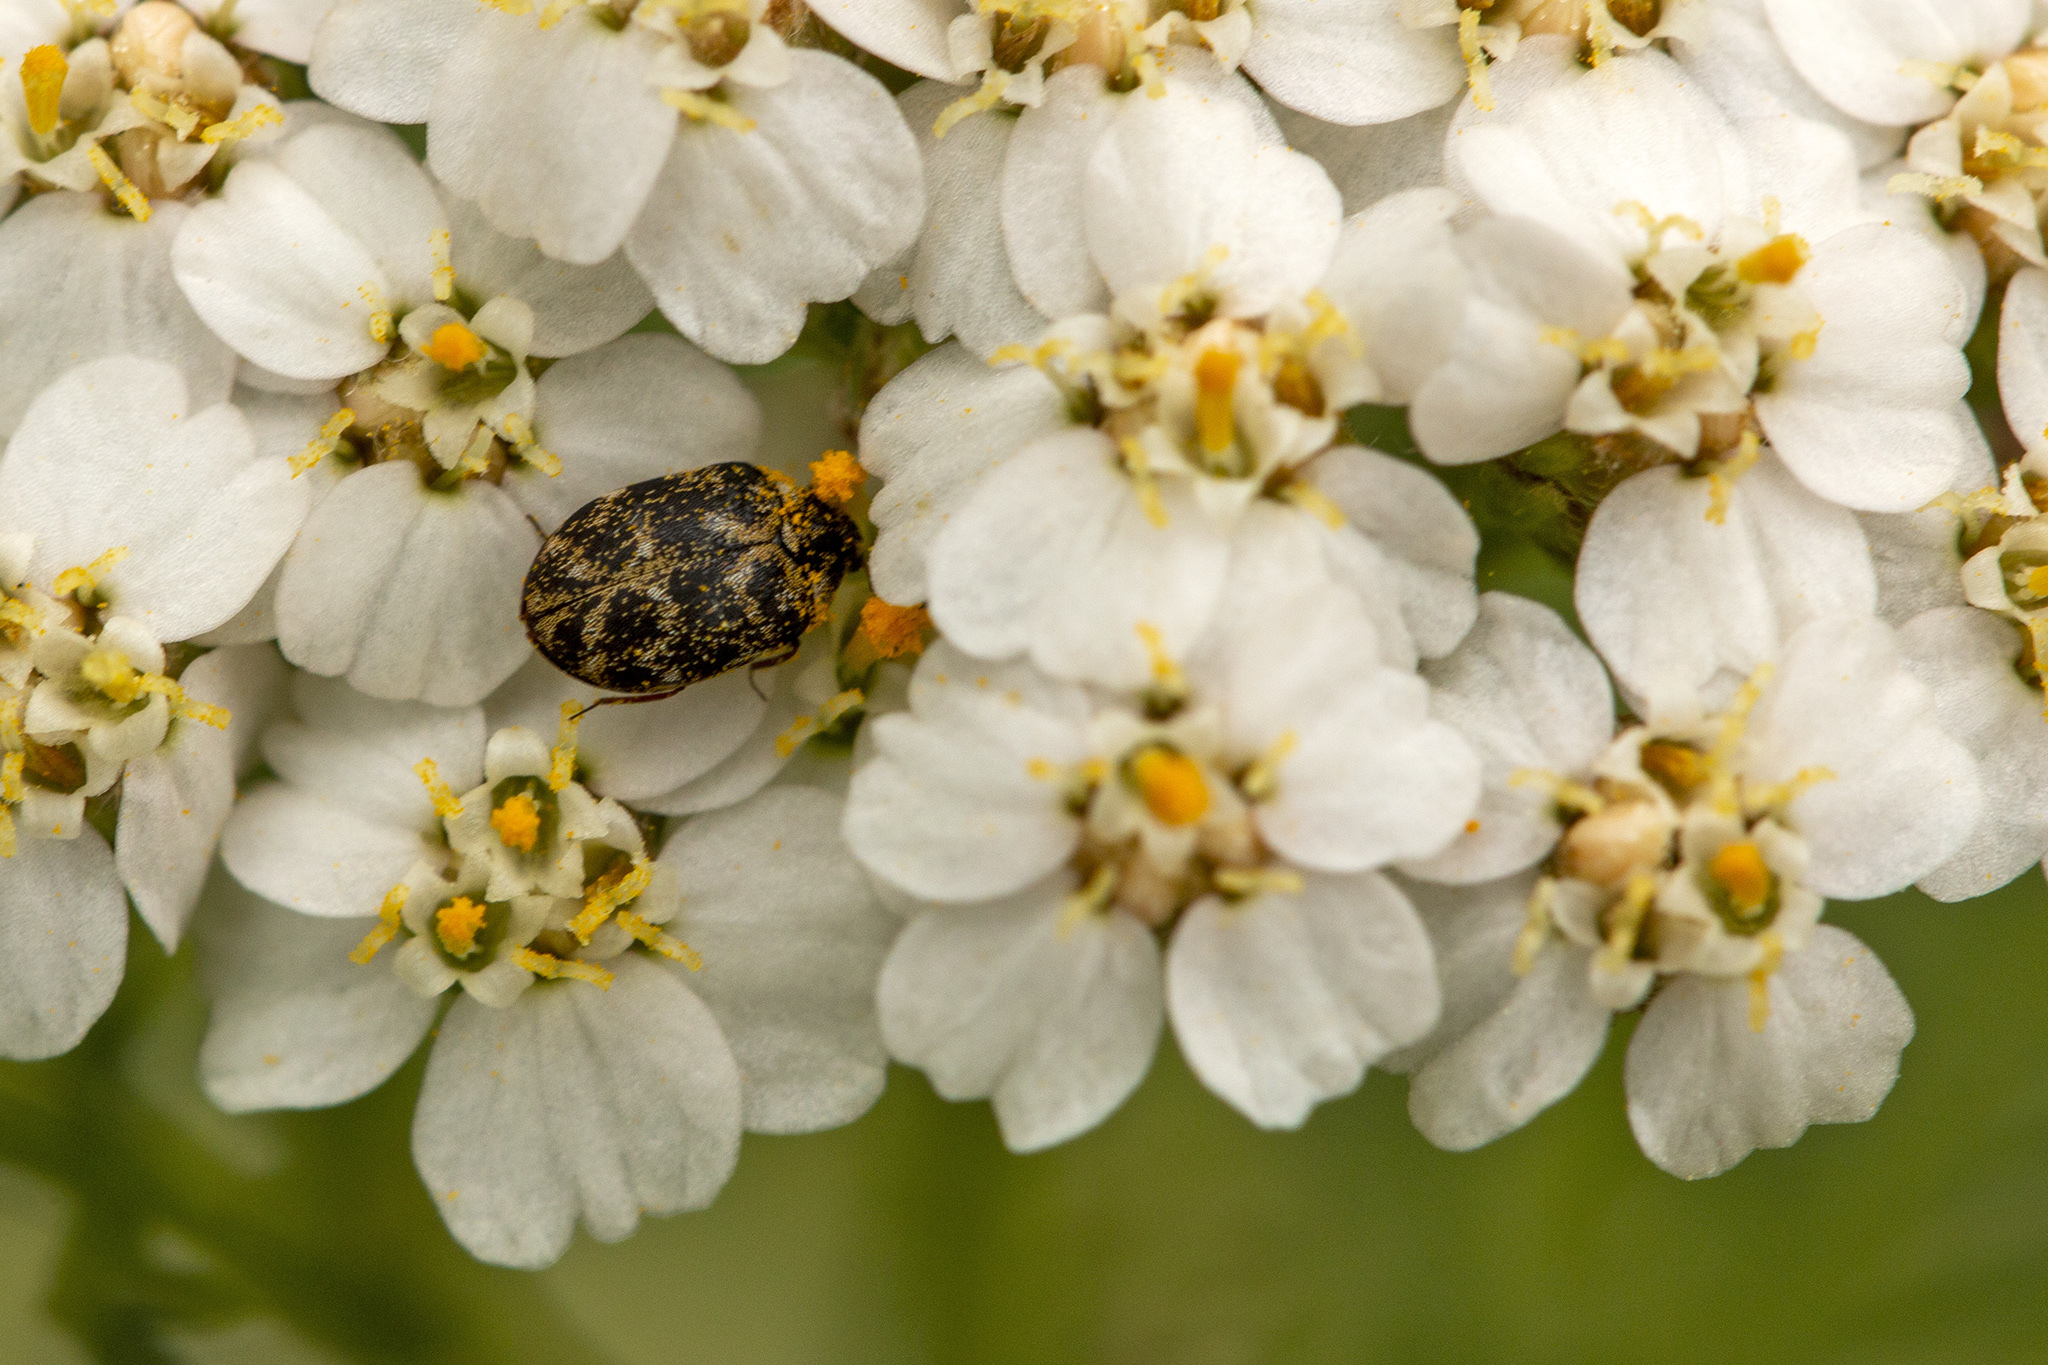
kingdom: Animalia
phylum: Arthropoda
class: Insecta
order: Coleoptera
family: Dermestidae
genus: Anthrenus
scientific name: Anthrenus museorum
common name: Museum beetle
